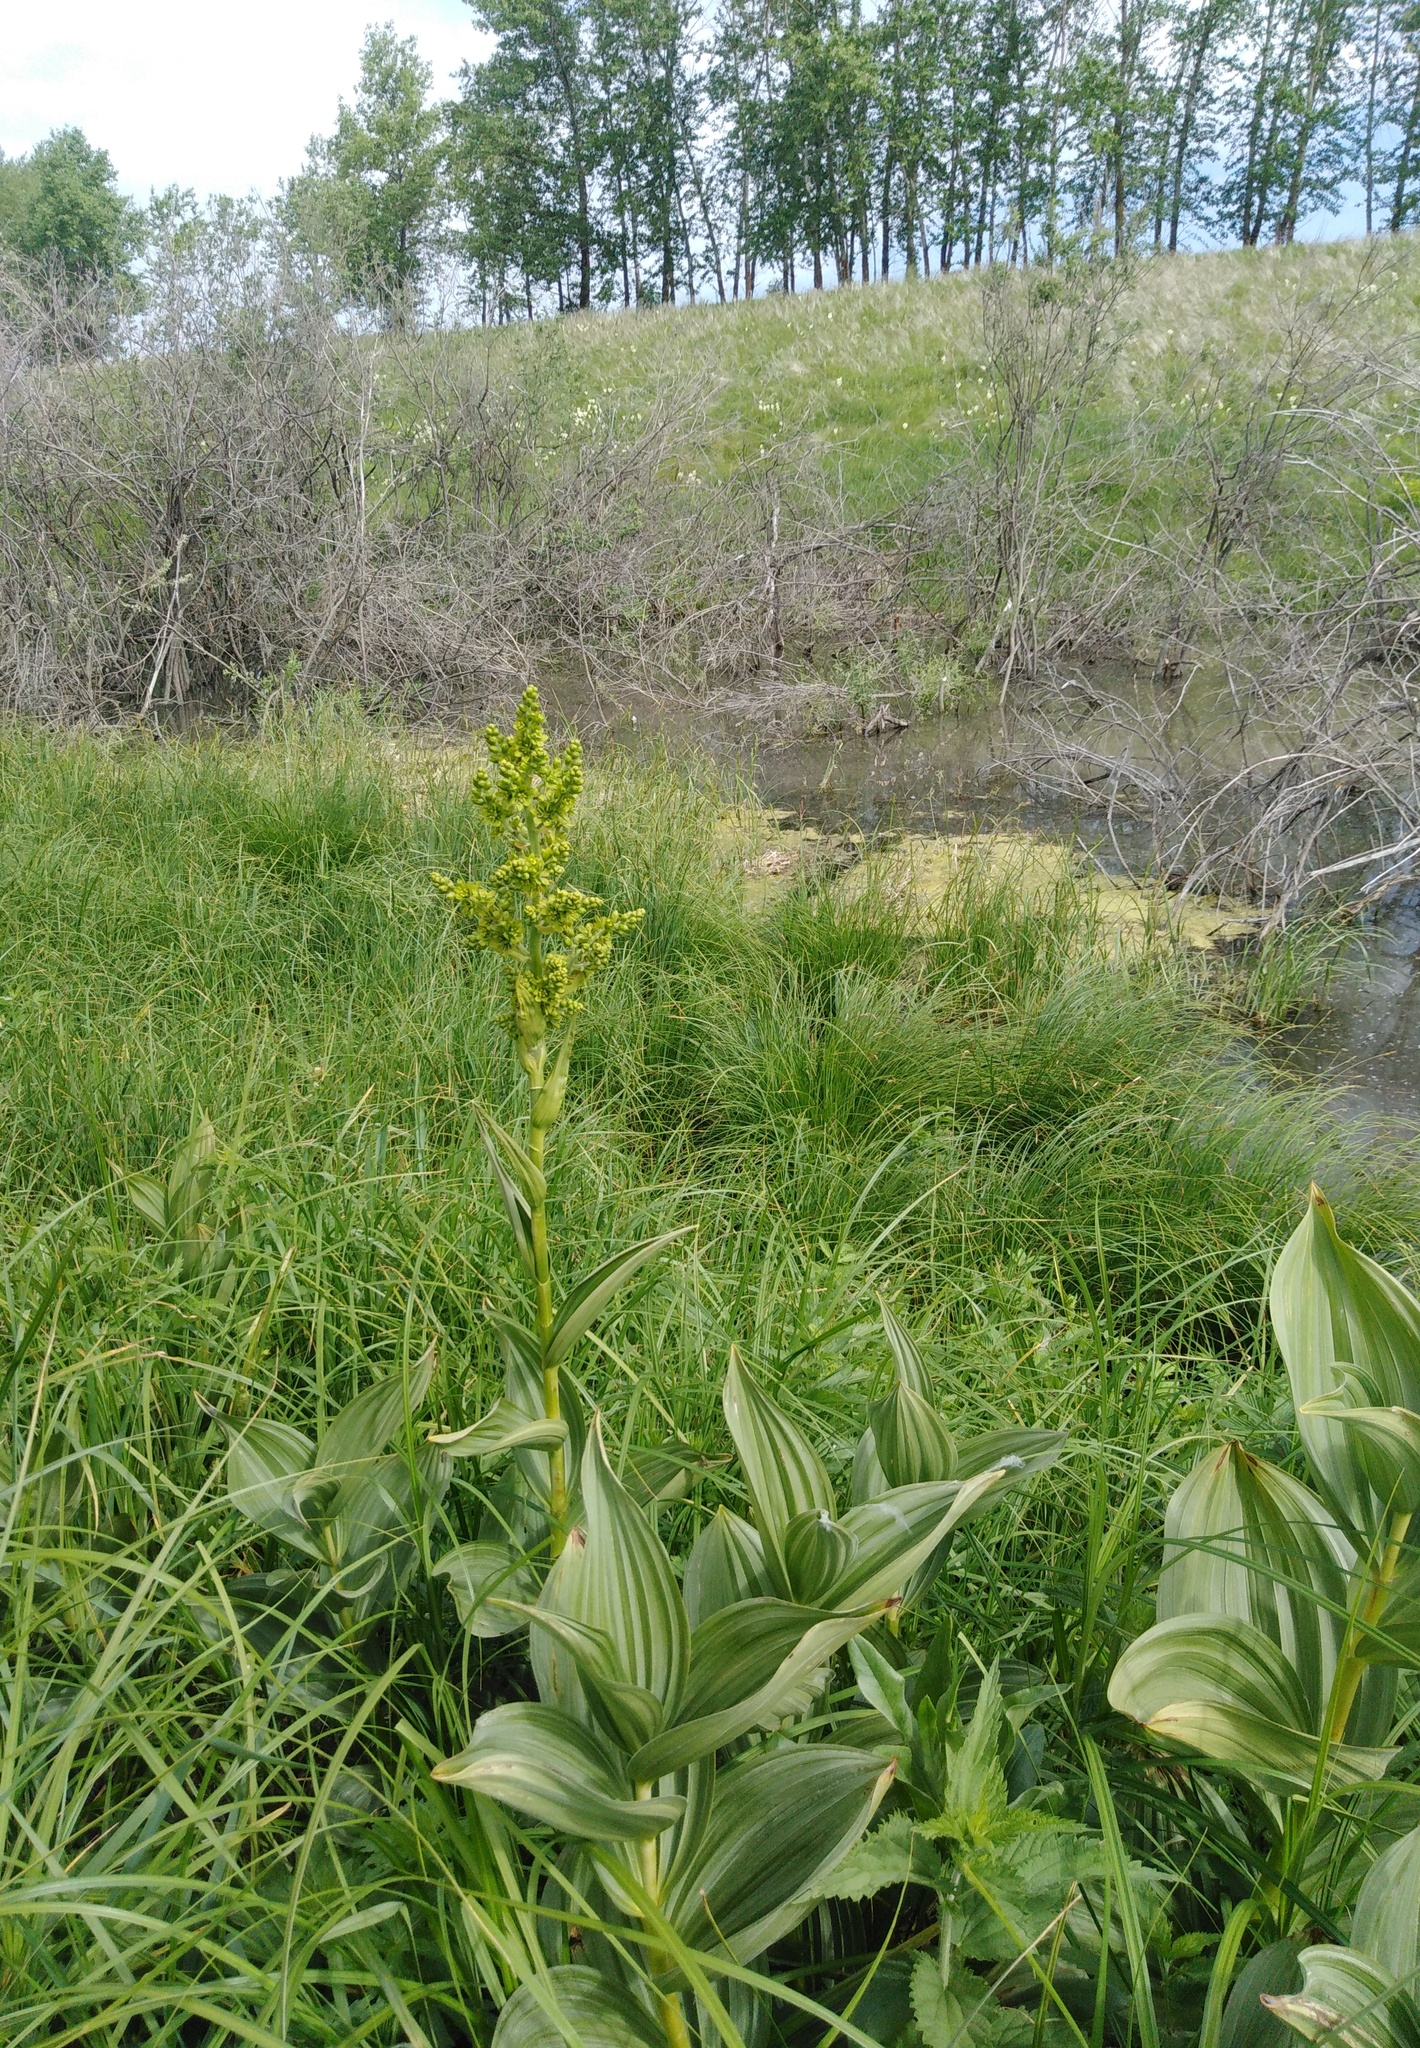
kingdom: Plantae
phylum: Tracheophyta
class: Liliopsida
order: Liliales
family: Melanthiaceae
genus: Veratrum
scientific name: Veratrum lobelianum
